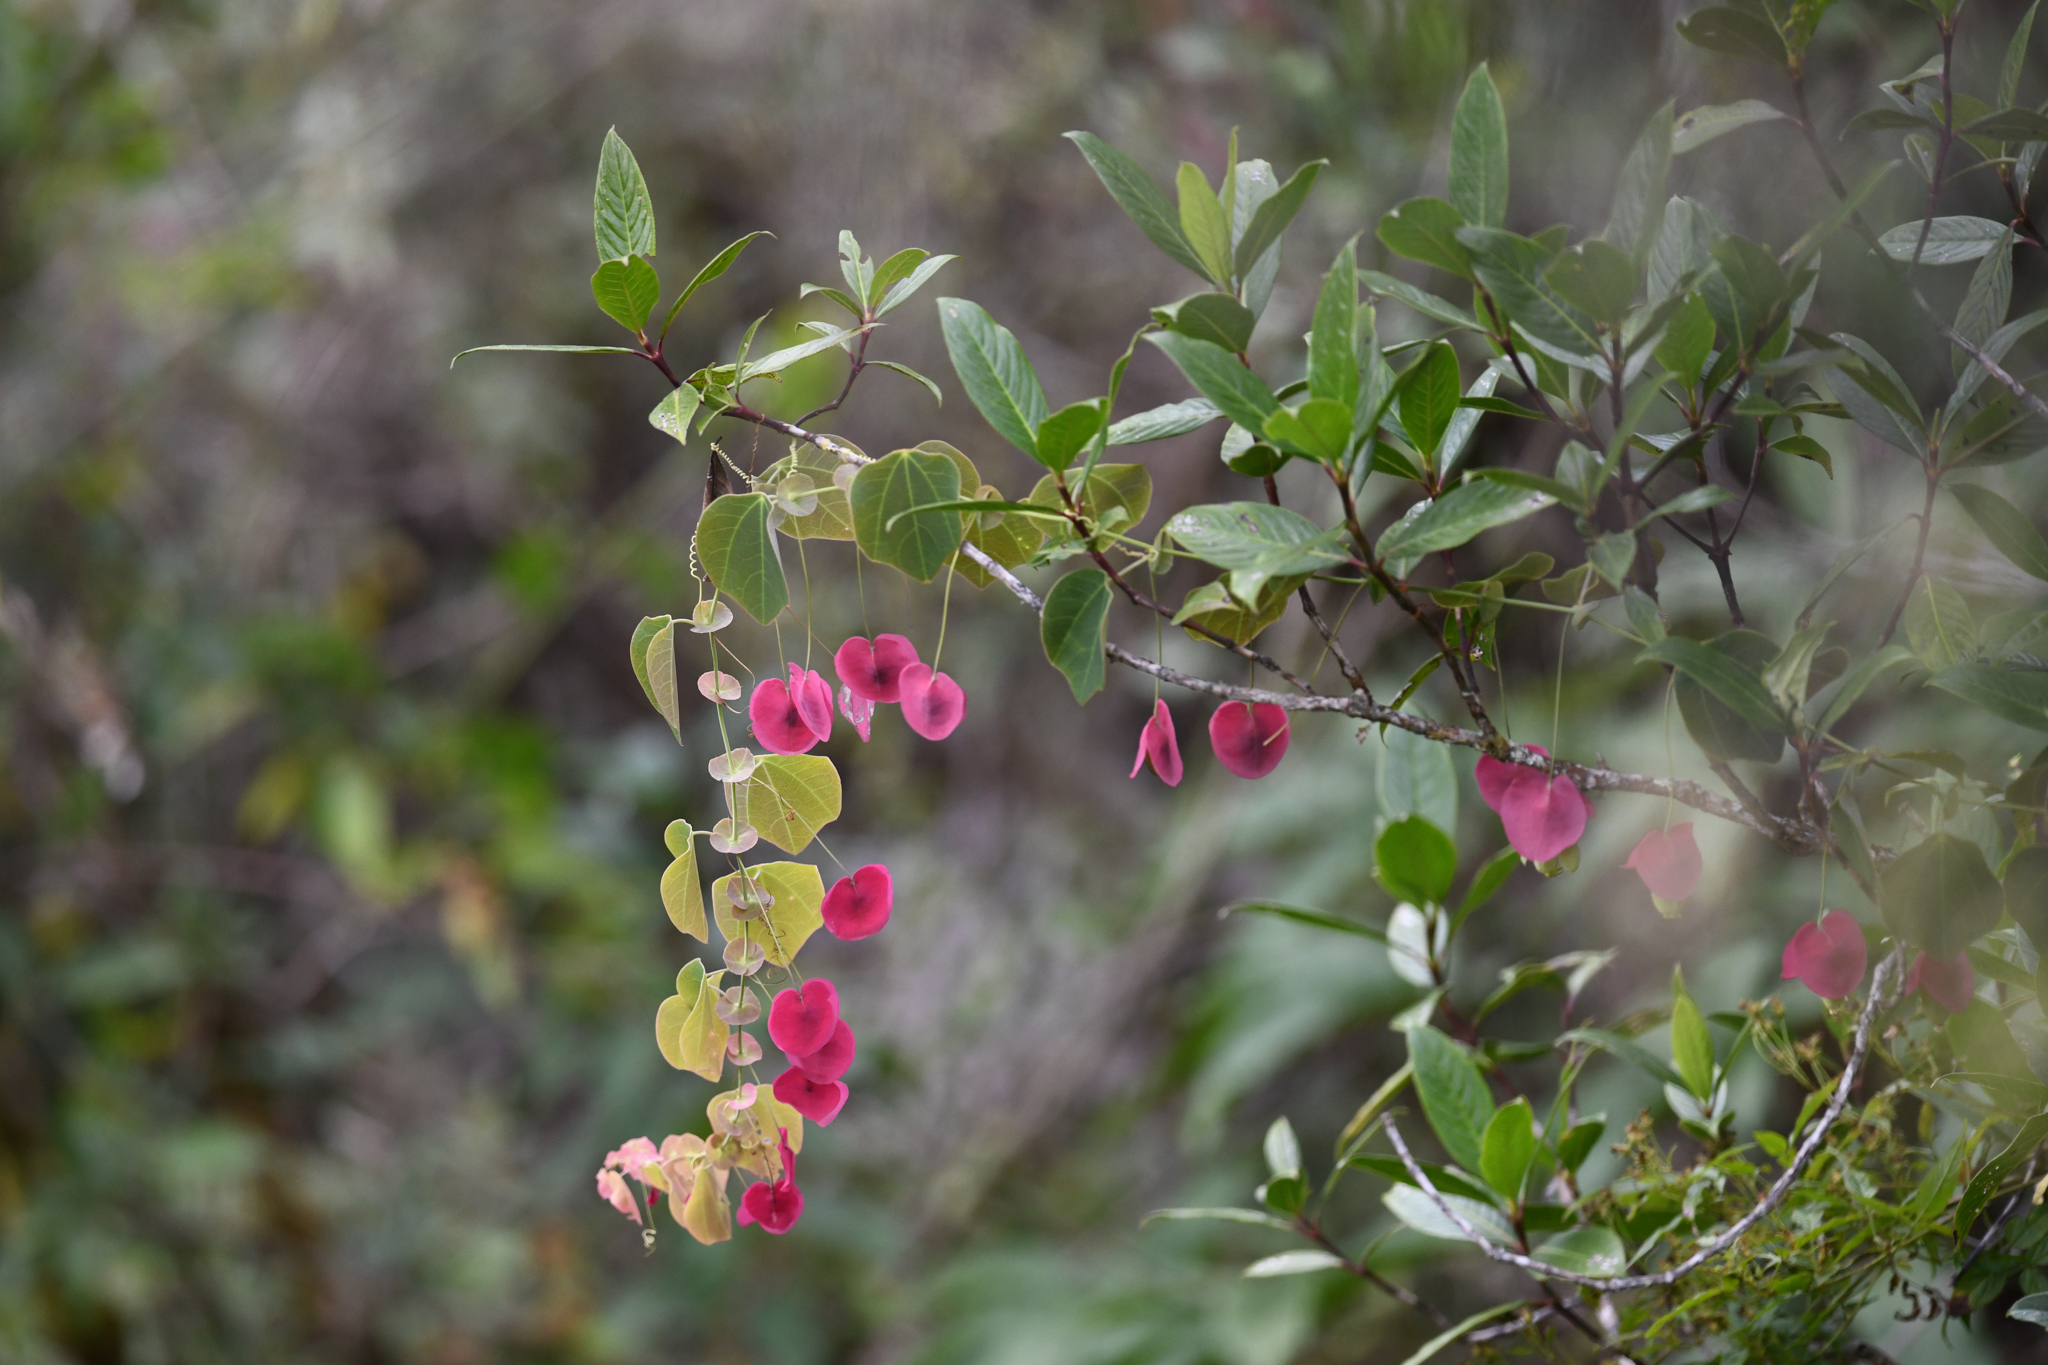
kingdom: Plantae
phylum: Tracheophyta
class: Magnoliopsida
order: Malpighiales
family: Passifloraceae
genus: Passiflora
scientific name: Passiflora membranacea
